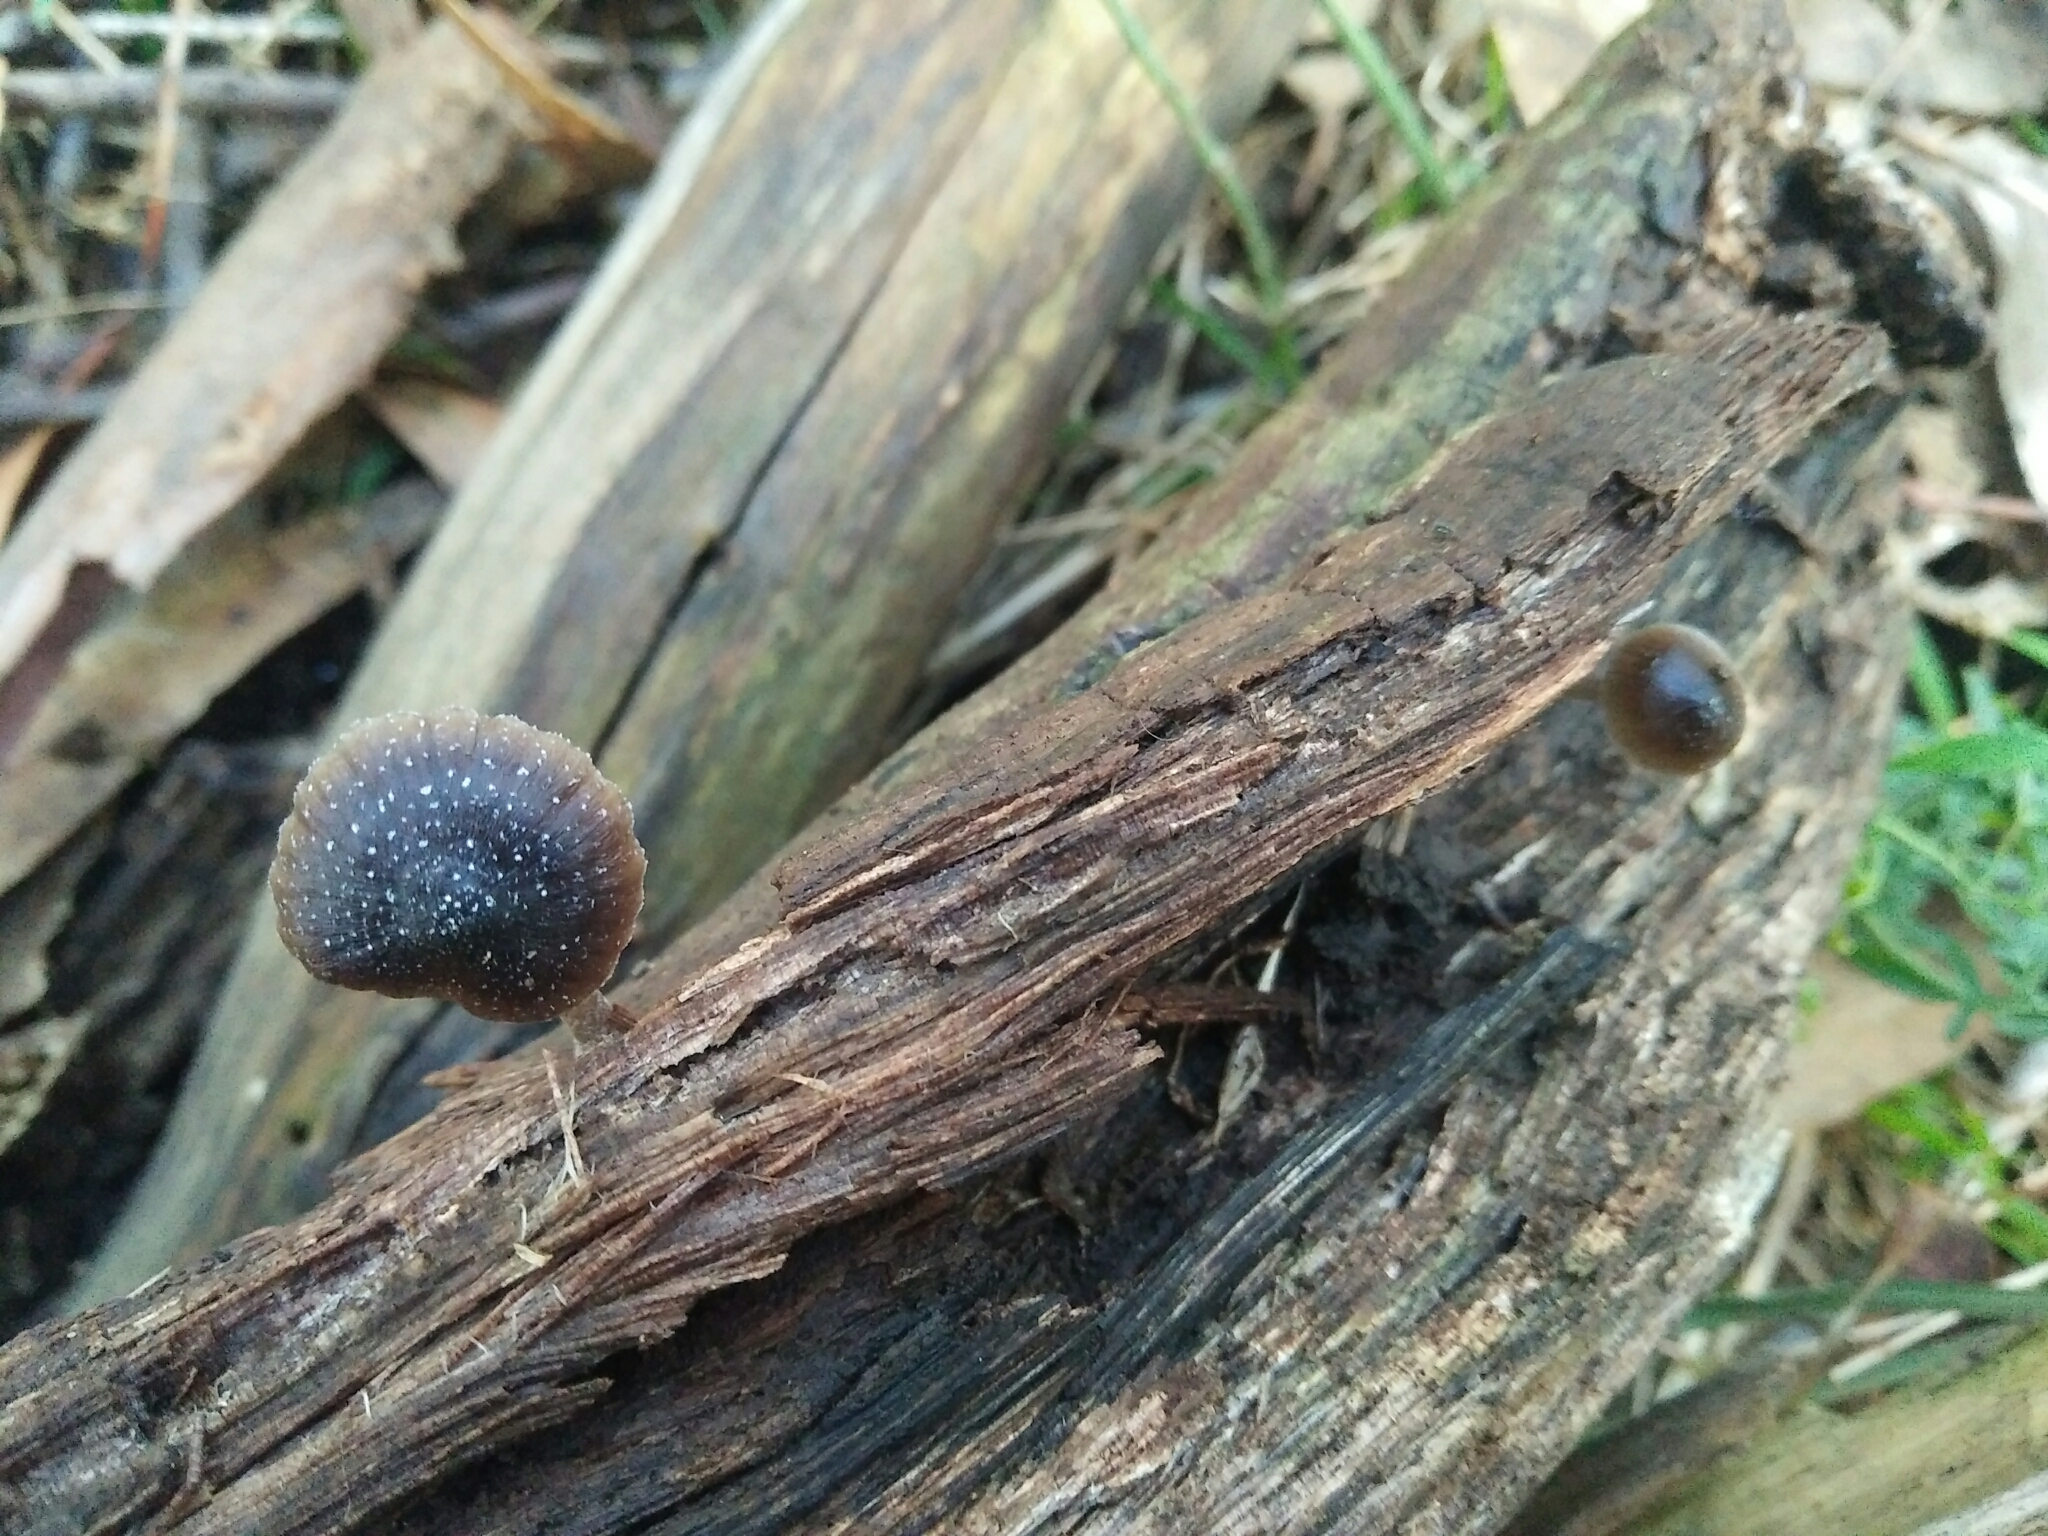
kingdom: Fungi
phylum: Basidiomycota
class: Agaricomycetes
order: Agaricales
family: Mycenaceae
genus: Mycena
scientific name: Mycena nargan
